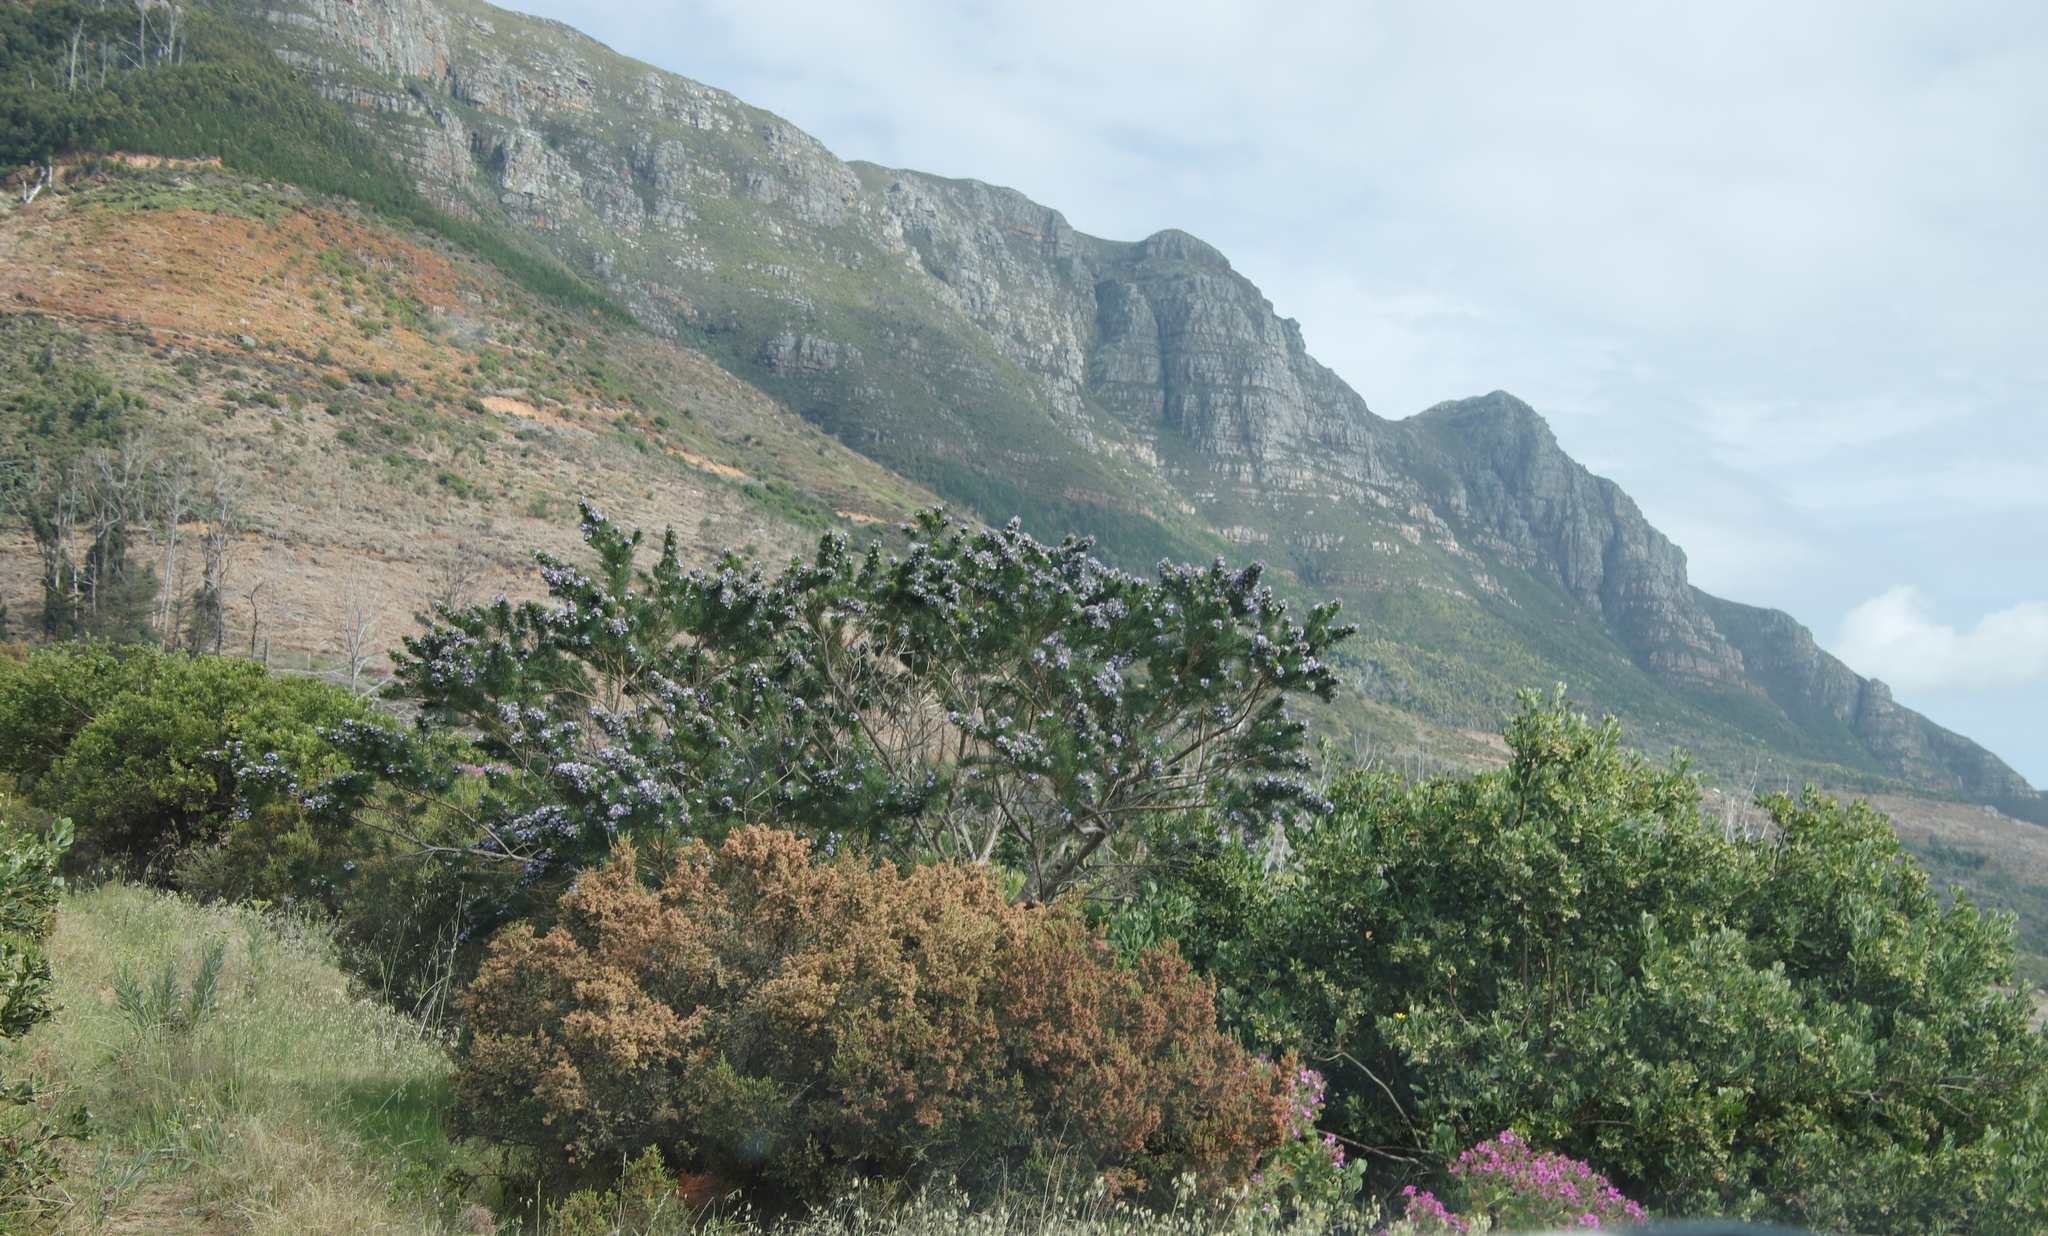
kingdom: Plantae
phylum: Tracheophyta
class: Magnoliopsida
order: Fabales
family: Fabaceae
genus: Psoralea
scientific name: Psoralea pinnata
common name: African scurfpea
